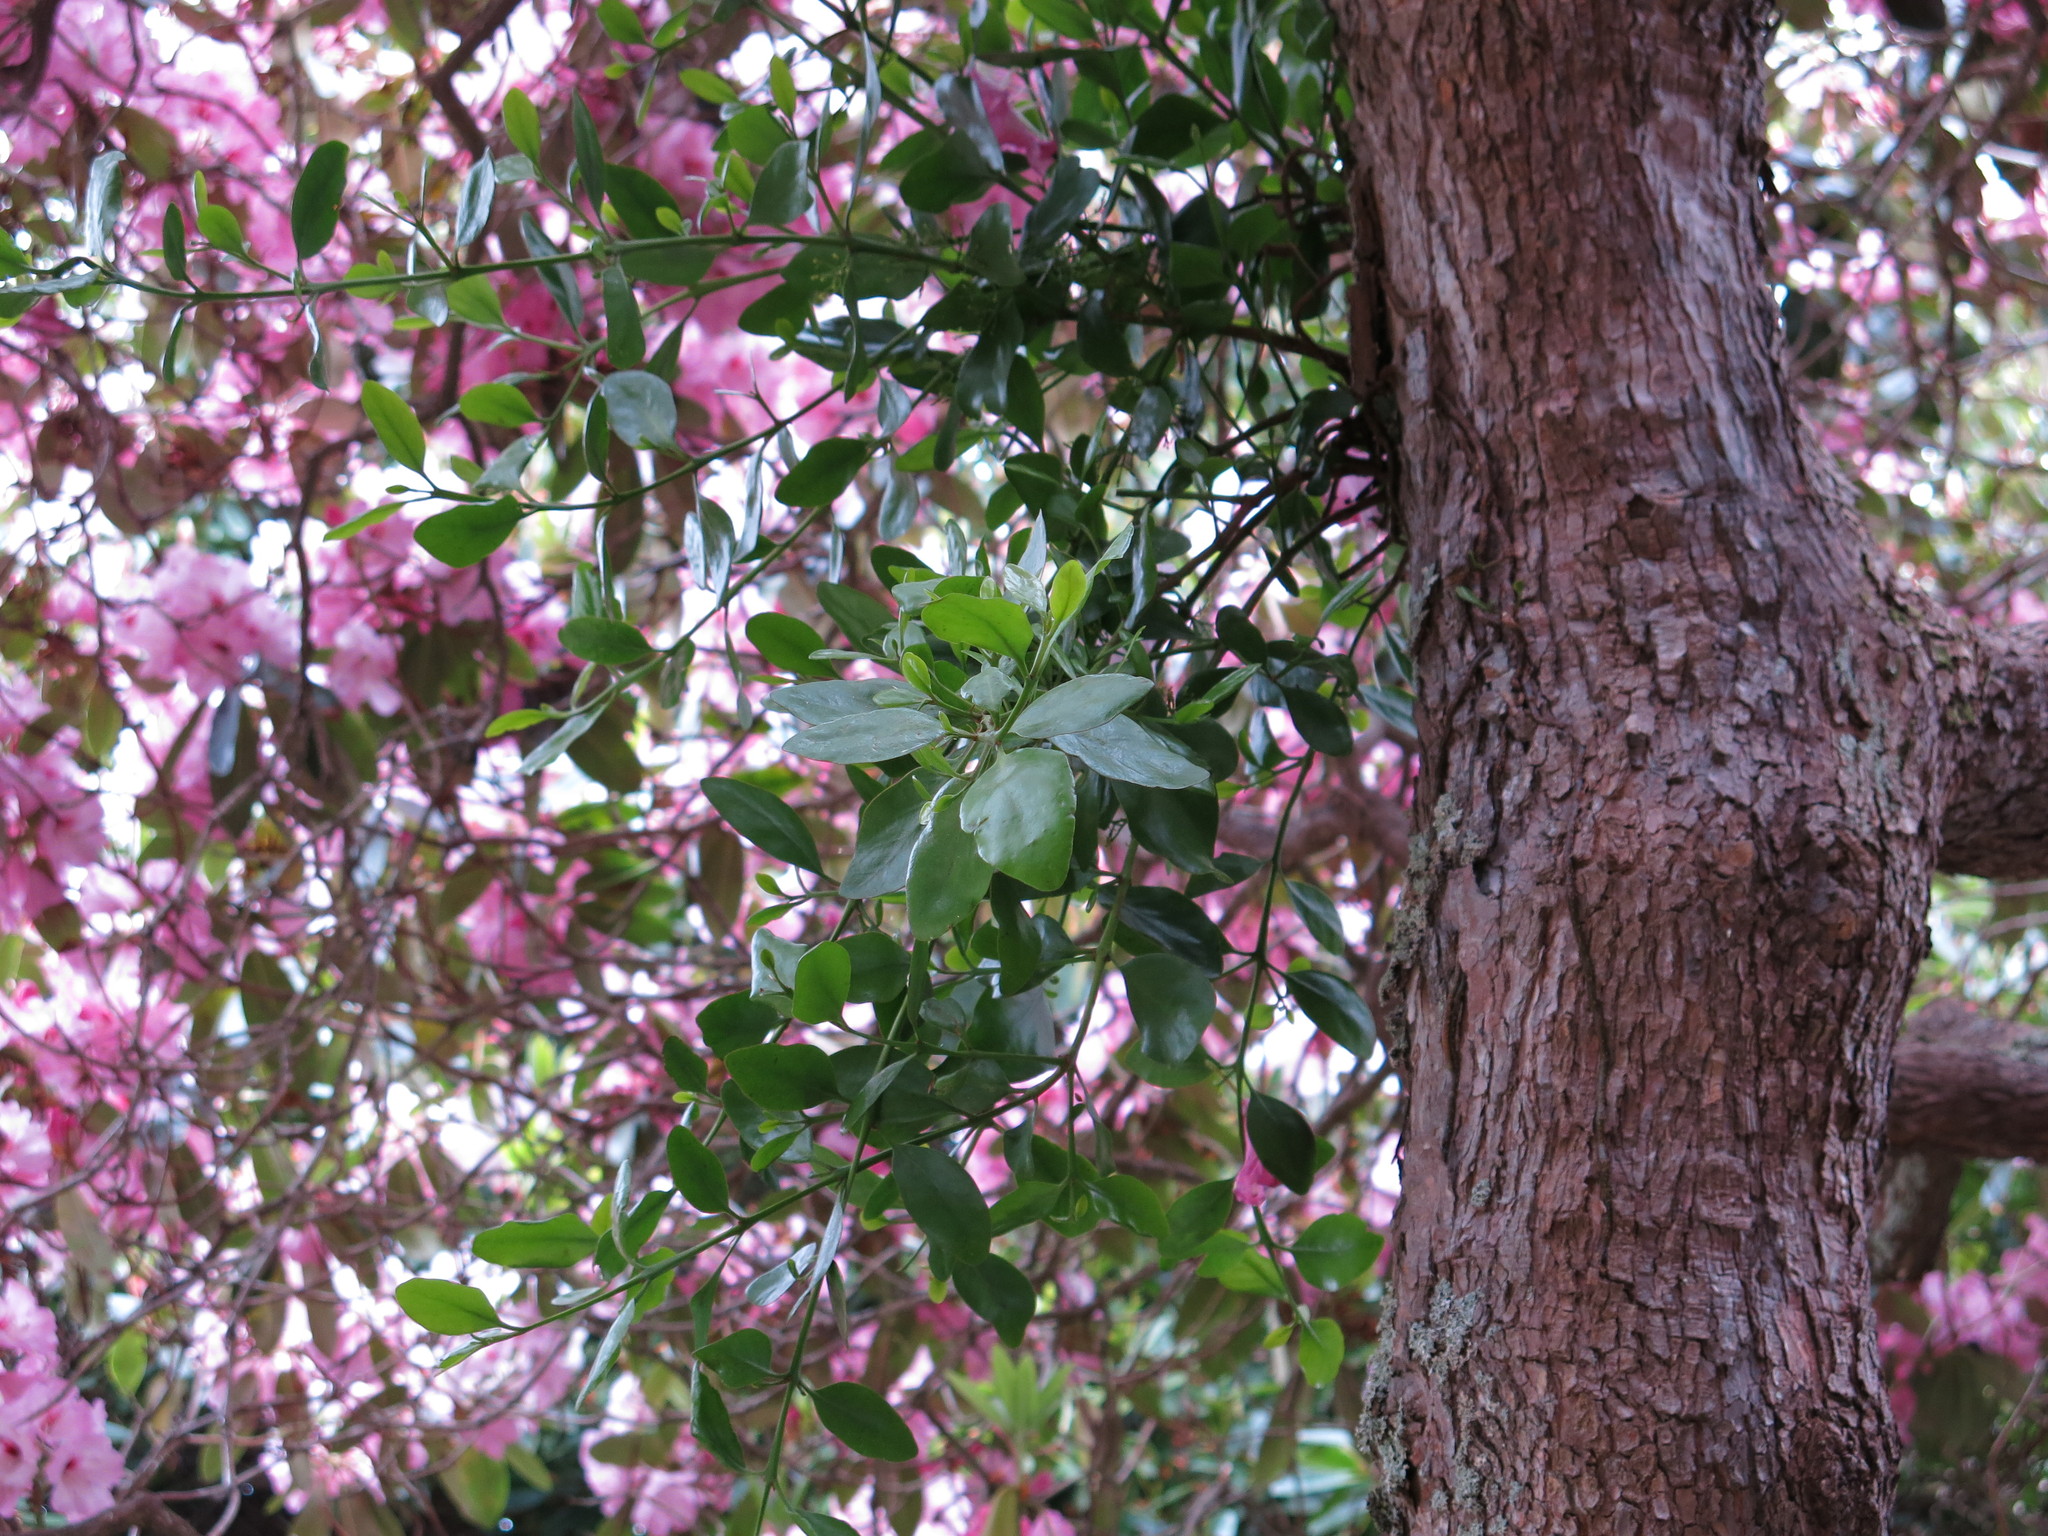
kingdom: Plantae
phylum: Tracheophyta
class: Magnoliopsida
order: Santalales
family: Loranthaceae
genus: Ileostylus
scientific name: Ileostylus micranthus
